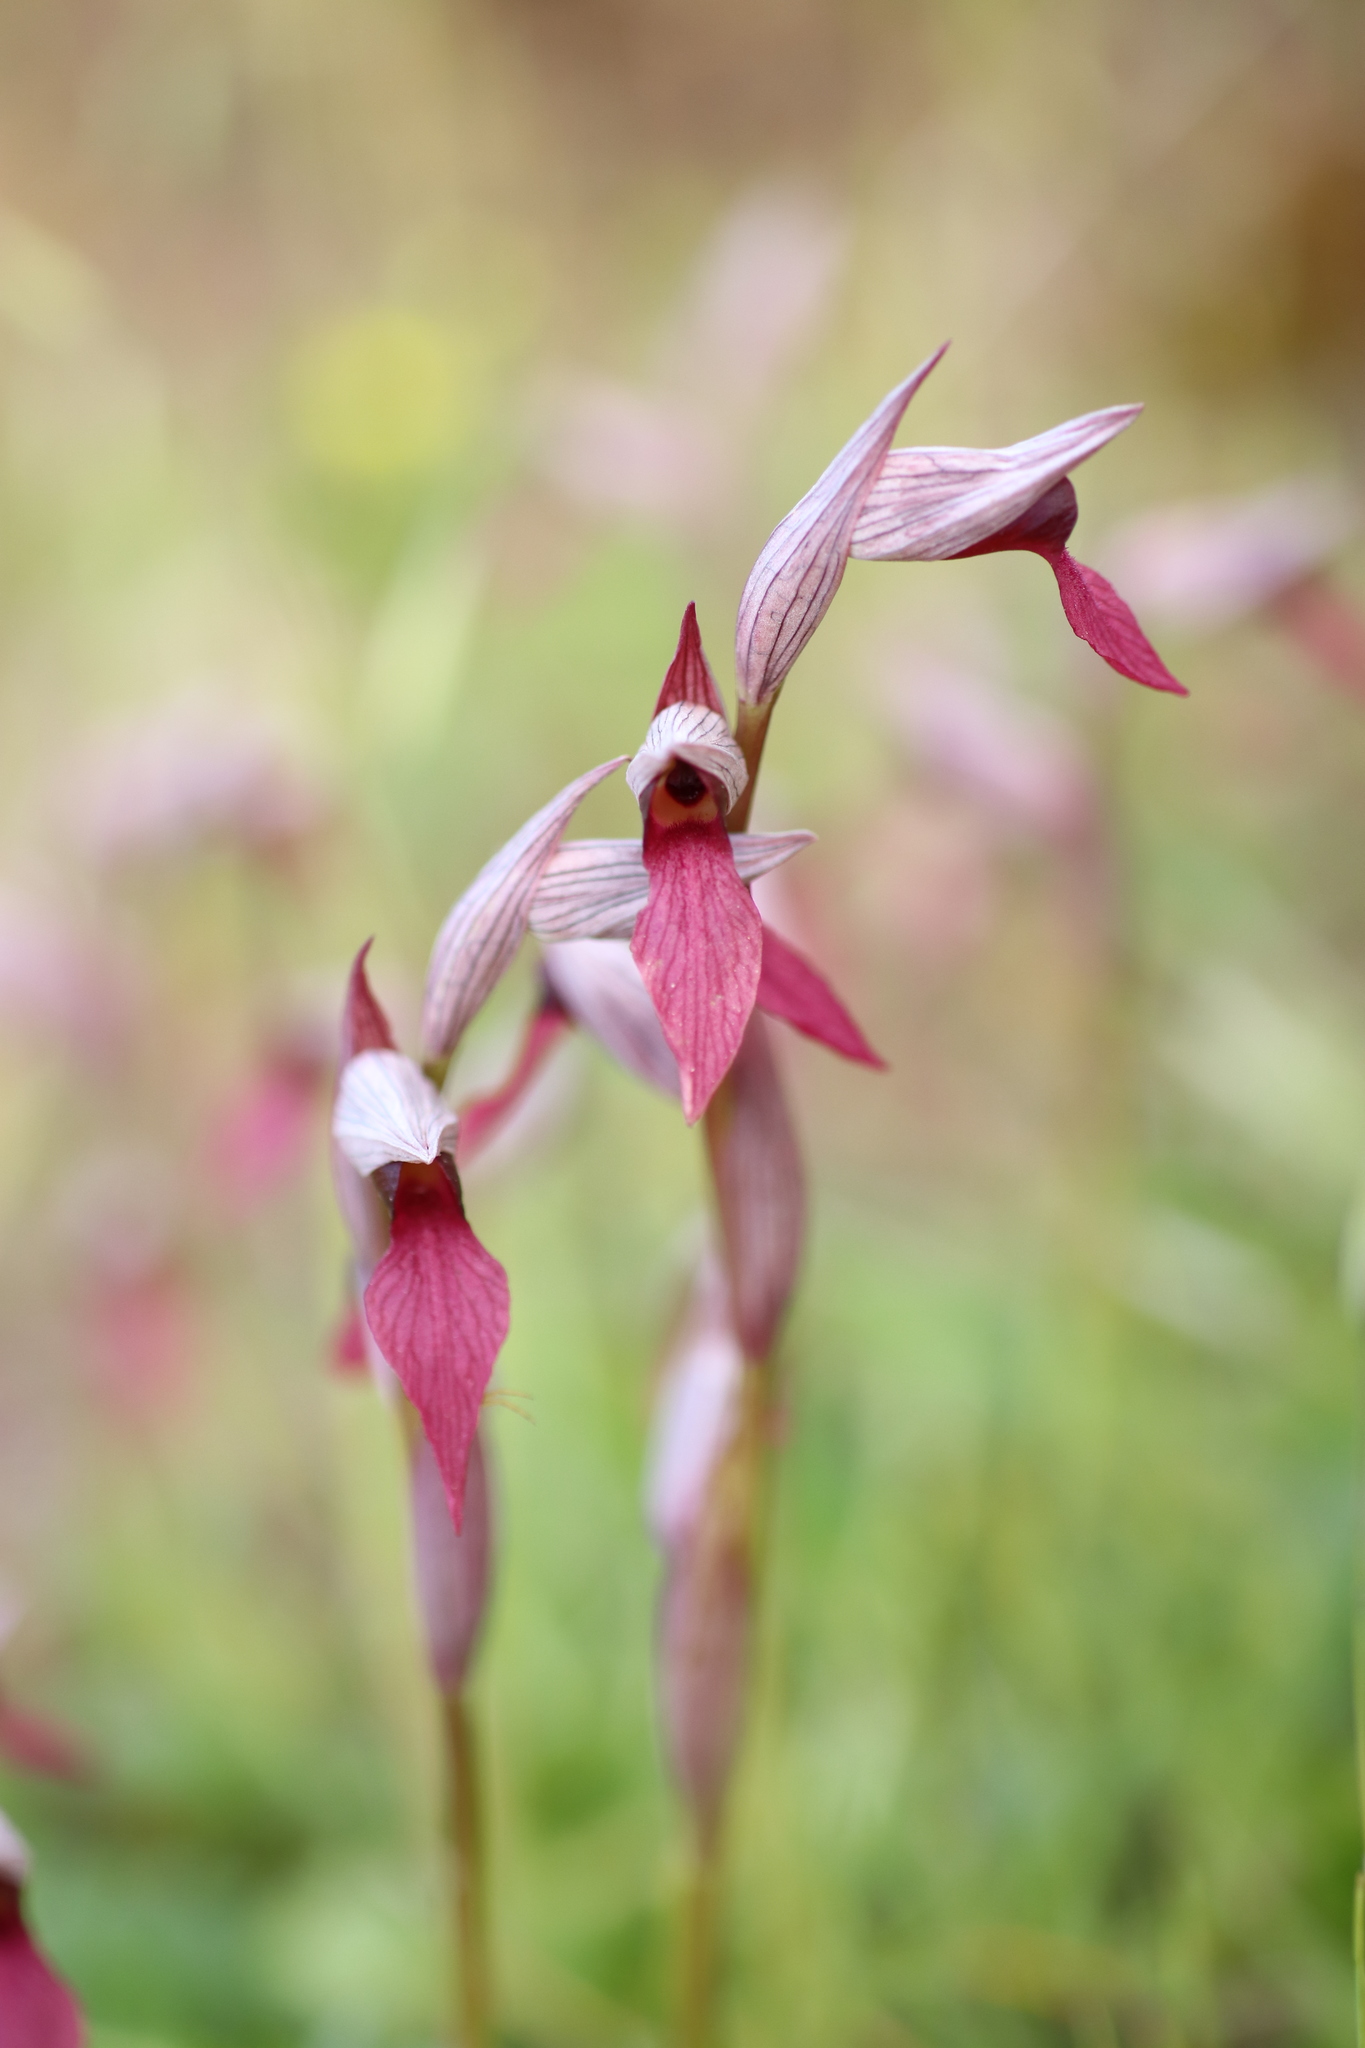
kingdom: Plantae
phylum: Tracheophyta
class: Liliopsida
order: Asparagales
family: Orchidaceae
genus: Serapias
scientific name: Serapias lingua
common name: Tongue-orchid
